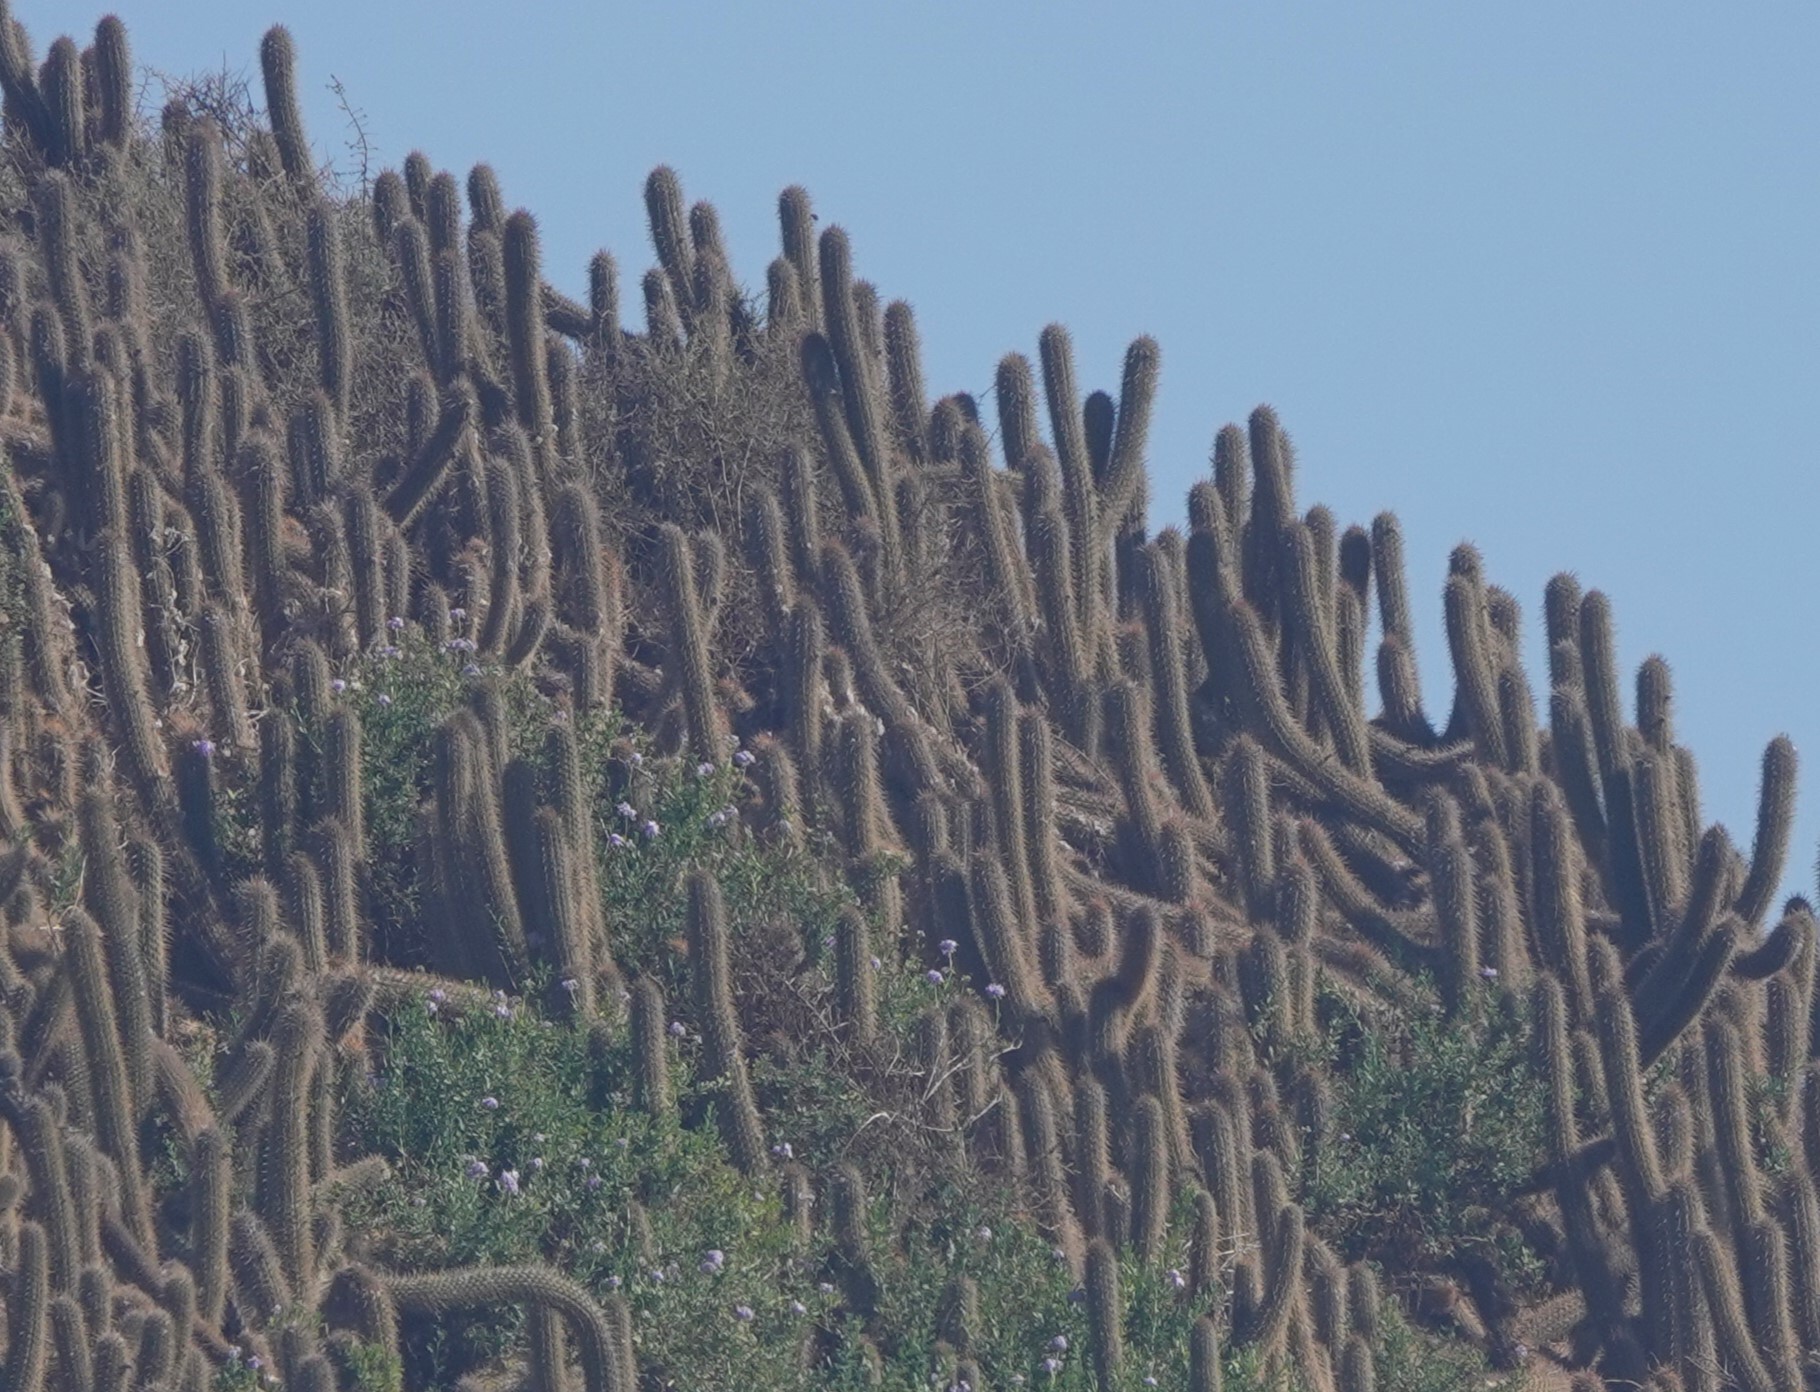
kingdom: Plantae
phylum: Tracheophyta
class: Magnoliopsida
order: Caryophyllales
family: Cactaceae
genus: Leucostele
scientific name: Leucostele litoralis
